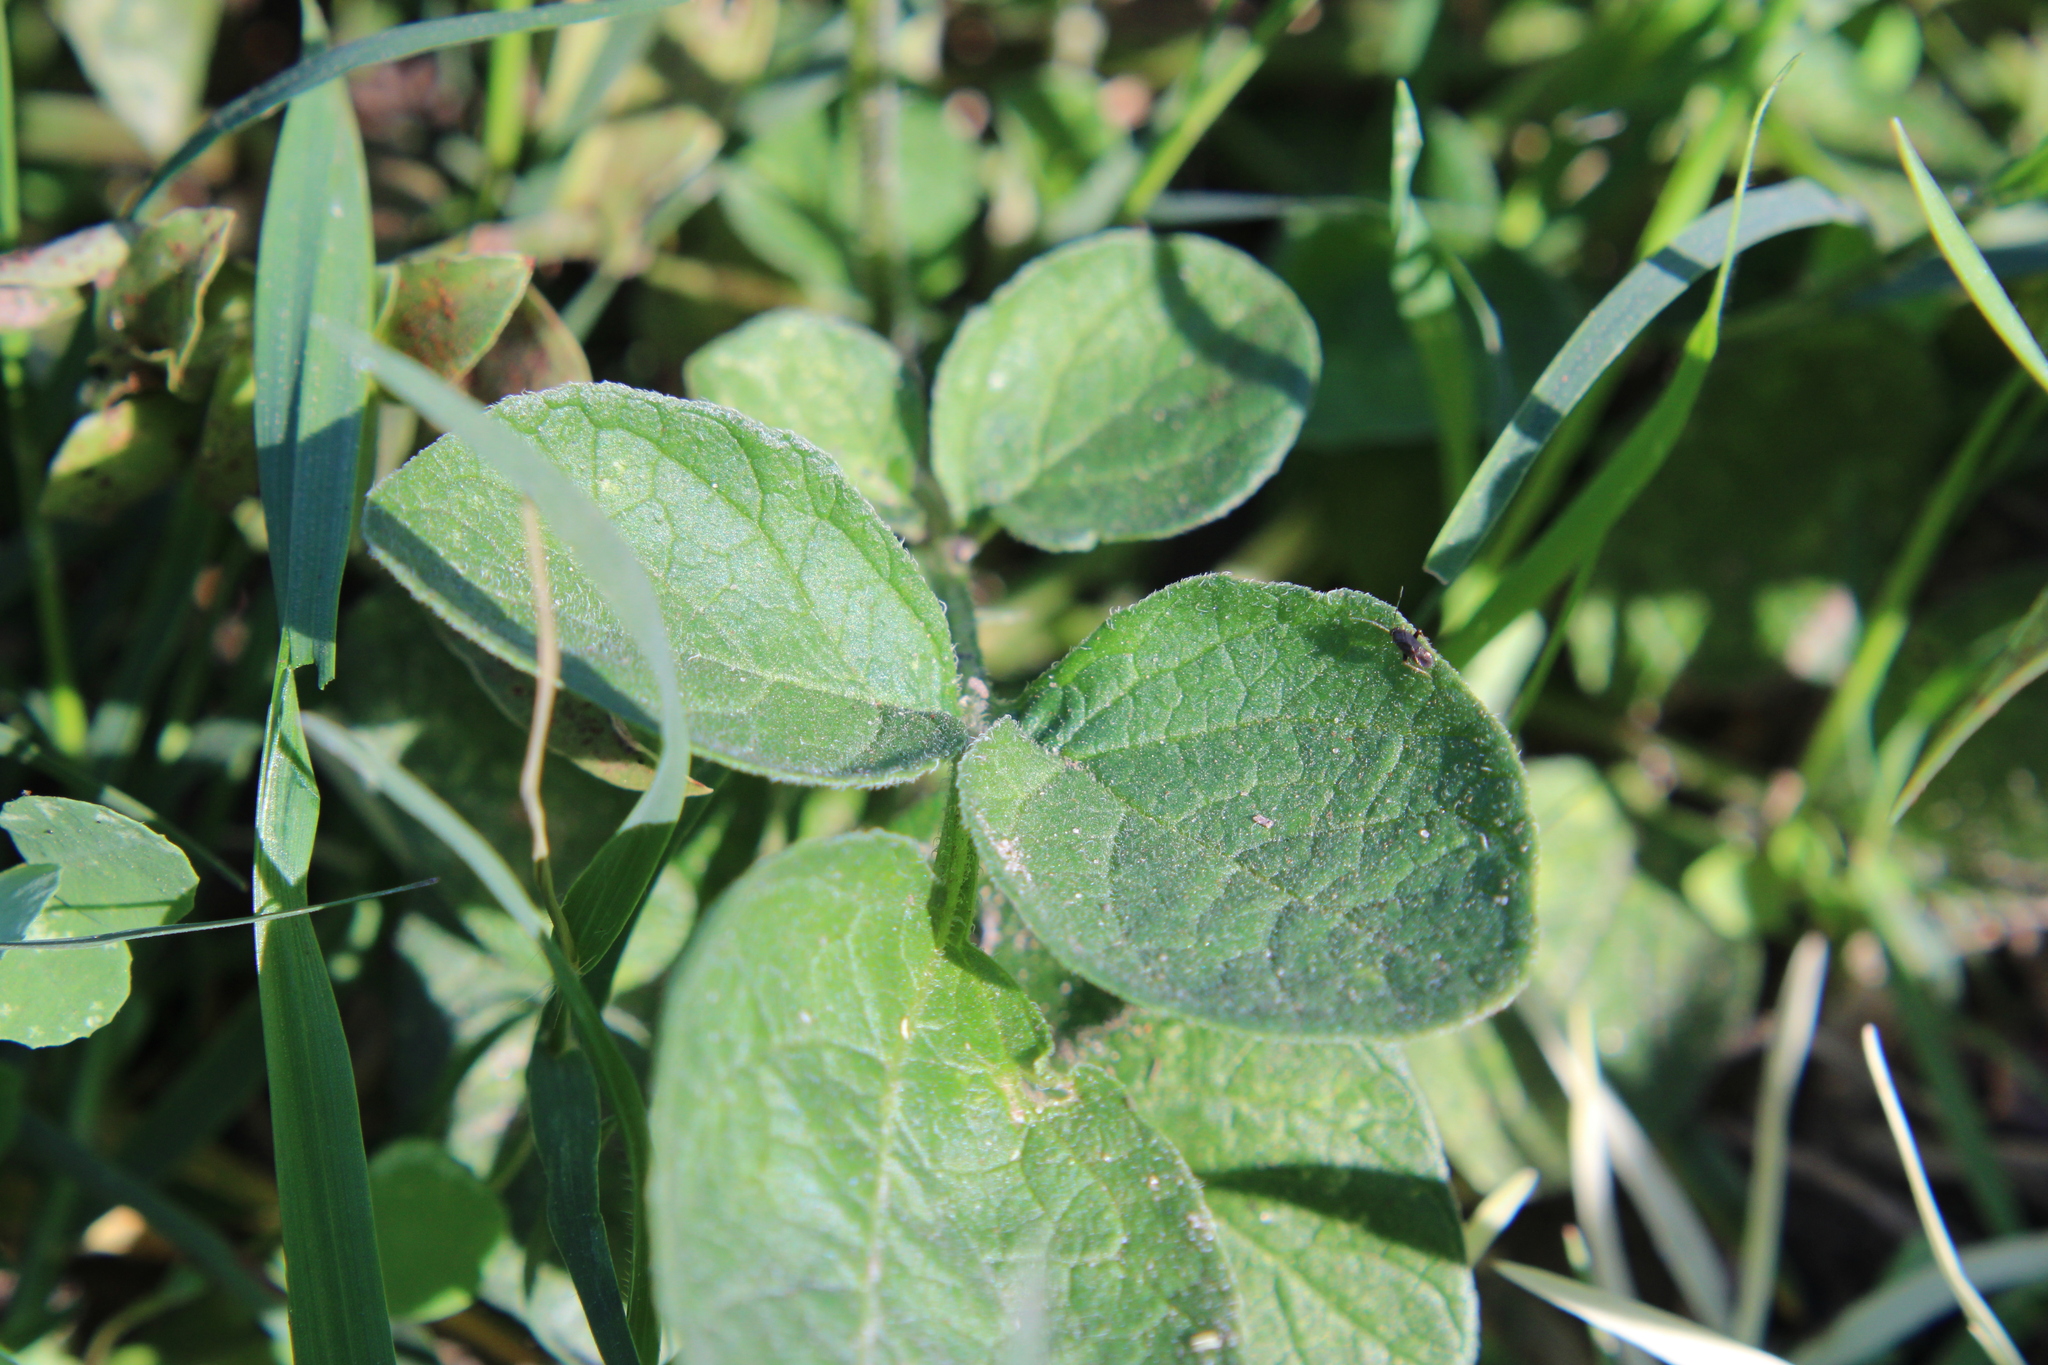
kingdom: Plantae
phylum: Tracheophyta
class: Magnoliopsida
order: Solanales
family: Solanaceae
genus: Solanum
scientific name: Solanum commersonii
